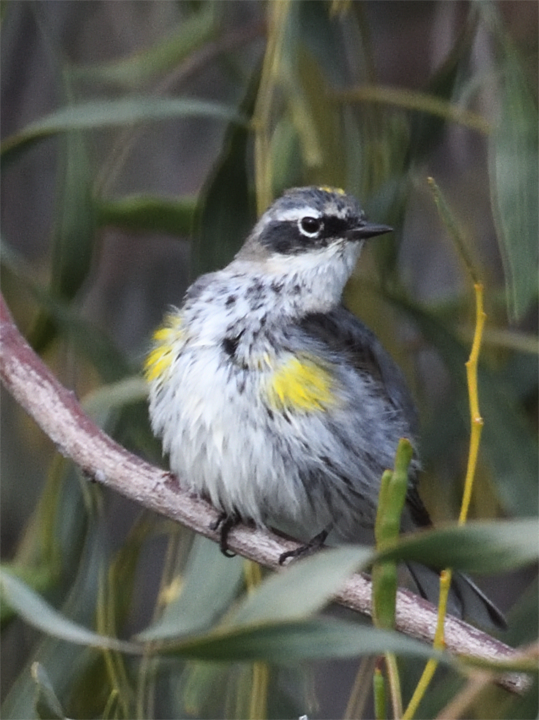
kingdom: Animalia
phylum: Chordata
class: Aves
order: Passeriformes
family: Parulidae
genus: Setophaga
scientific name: Setophaga coronata
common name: Myrtle warbler
